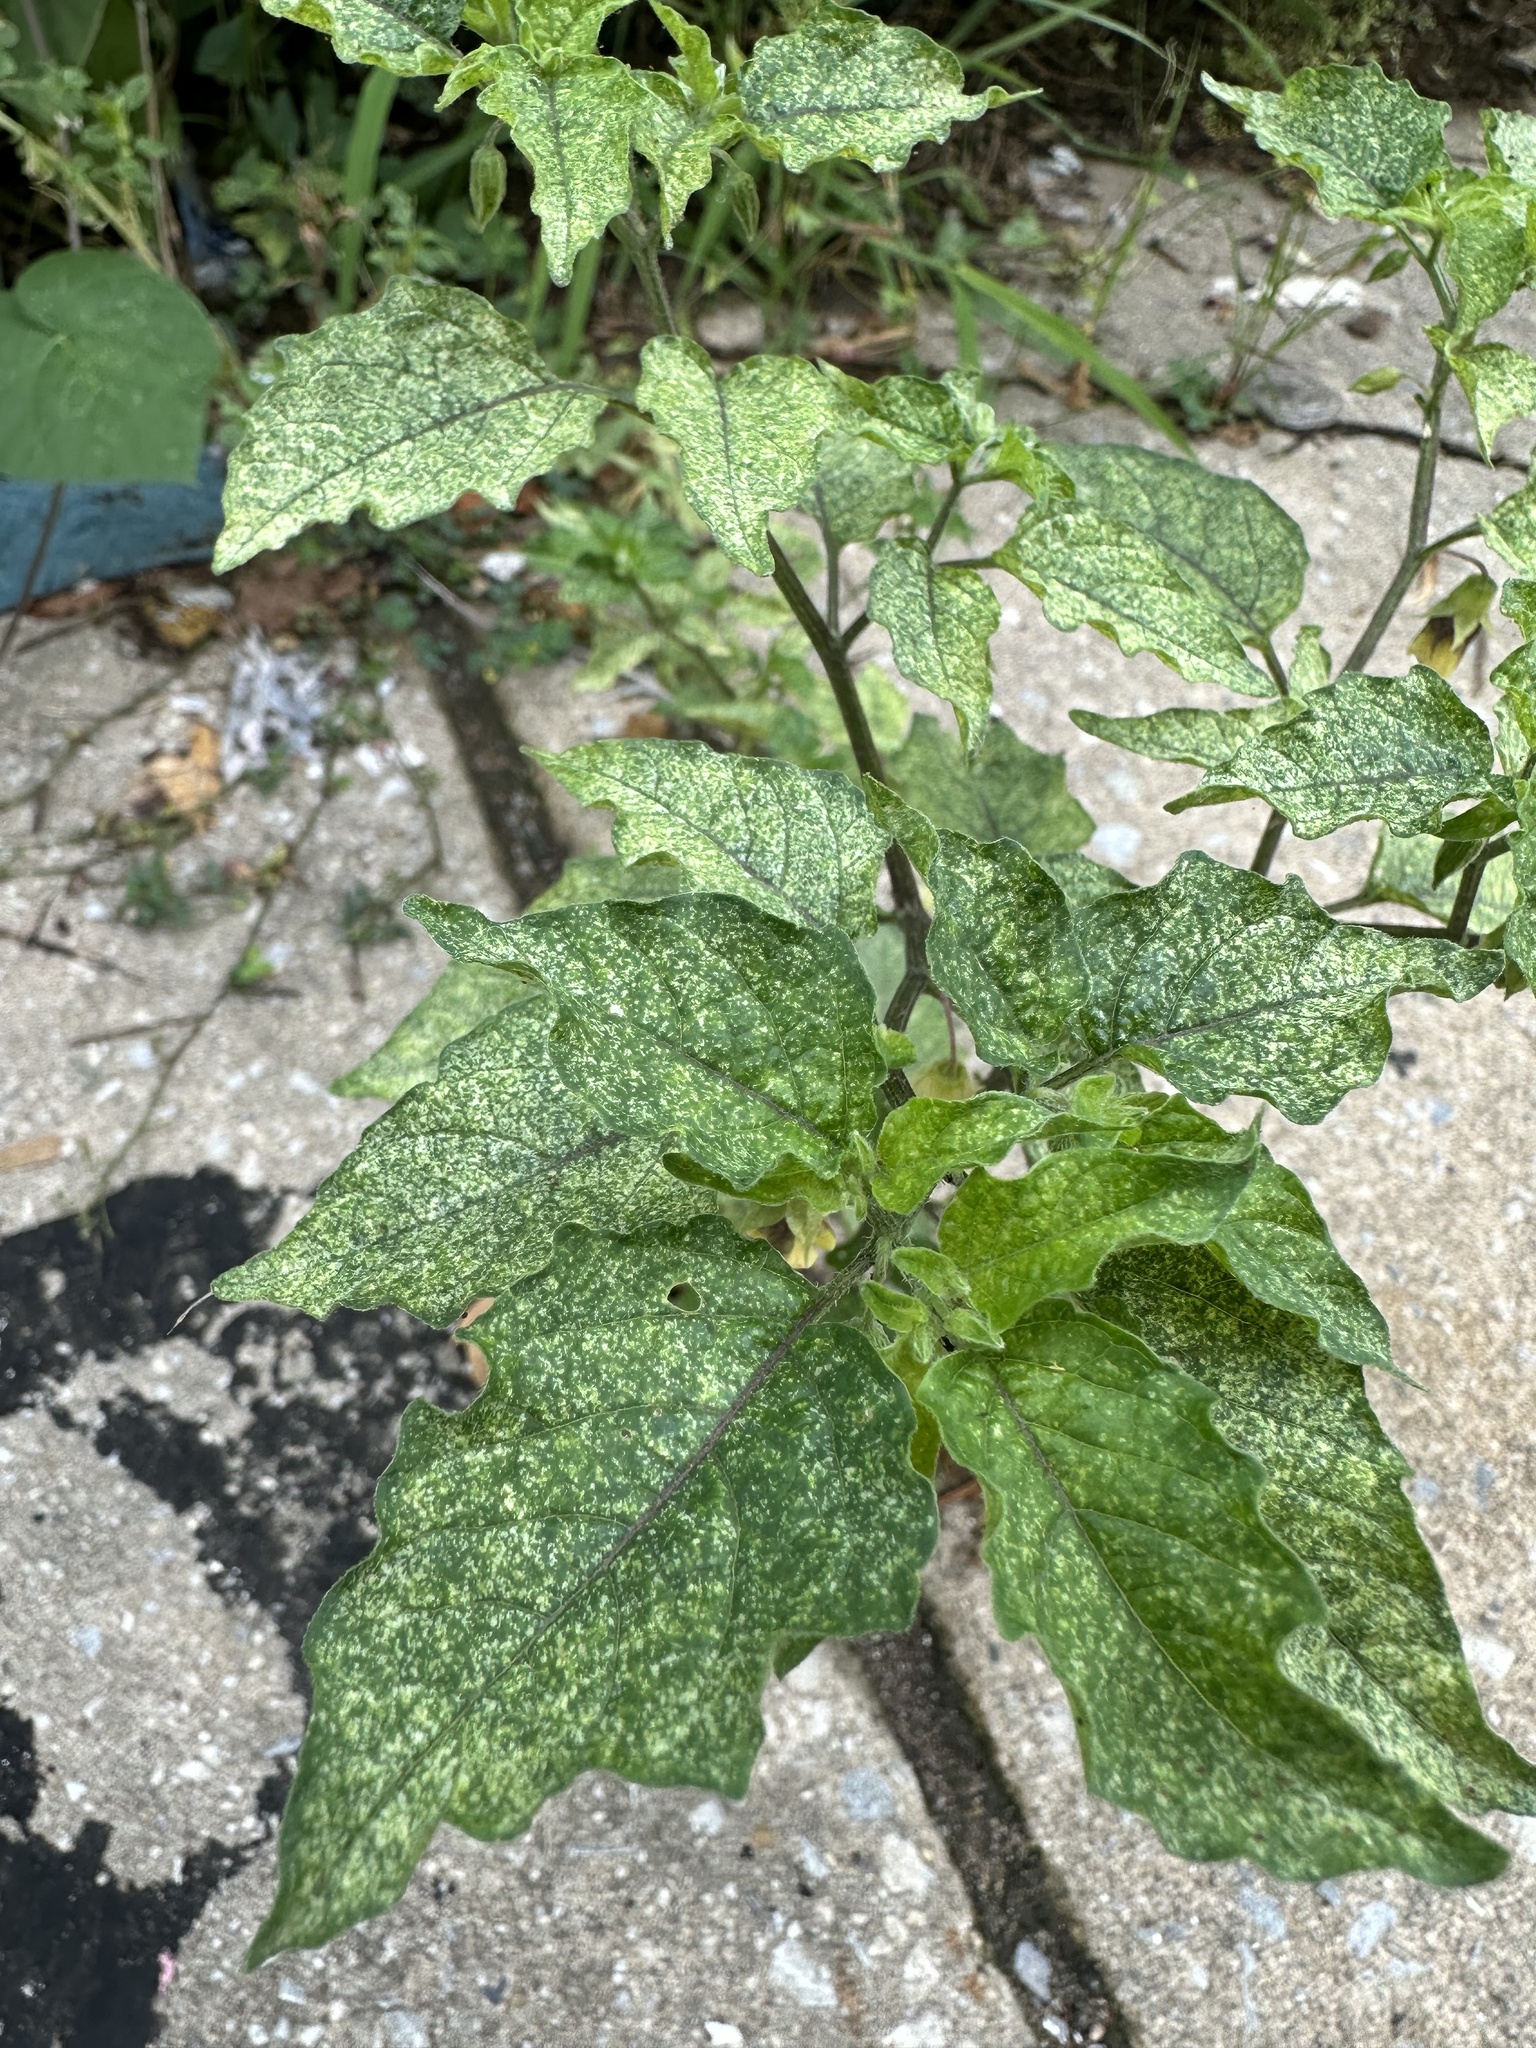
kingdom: Plantae
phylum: Tracheophyta
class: Magnoliopsida
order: Solanales
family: Solanaceae
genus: Physalis
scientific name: Physalis longifolia
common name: Common ground-cherry
